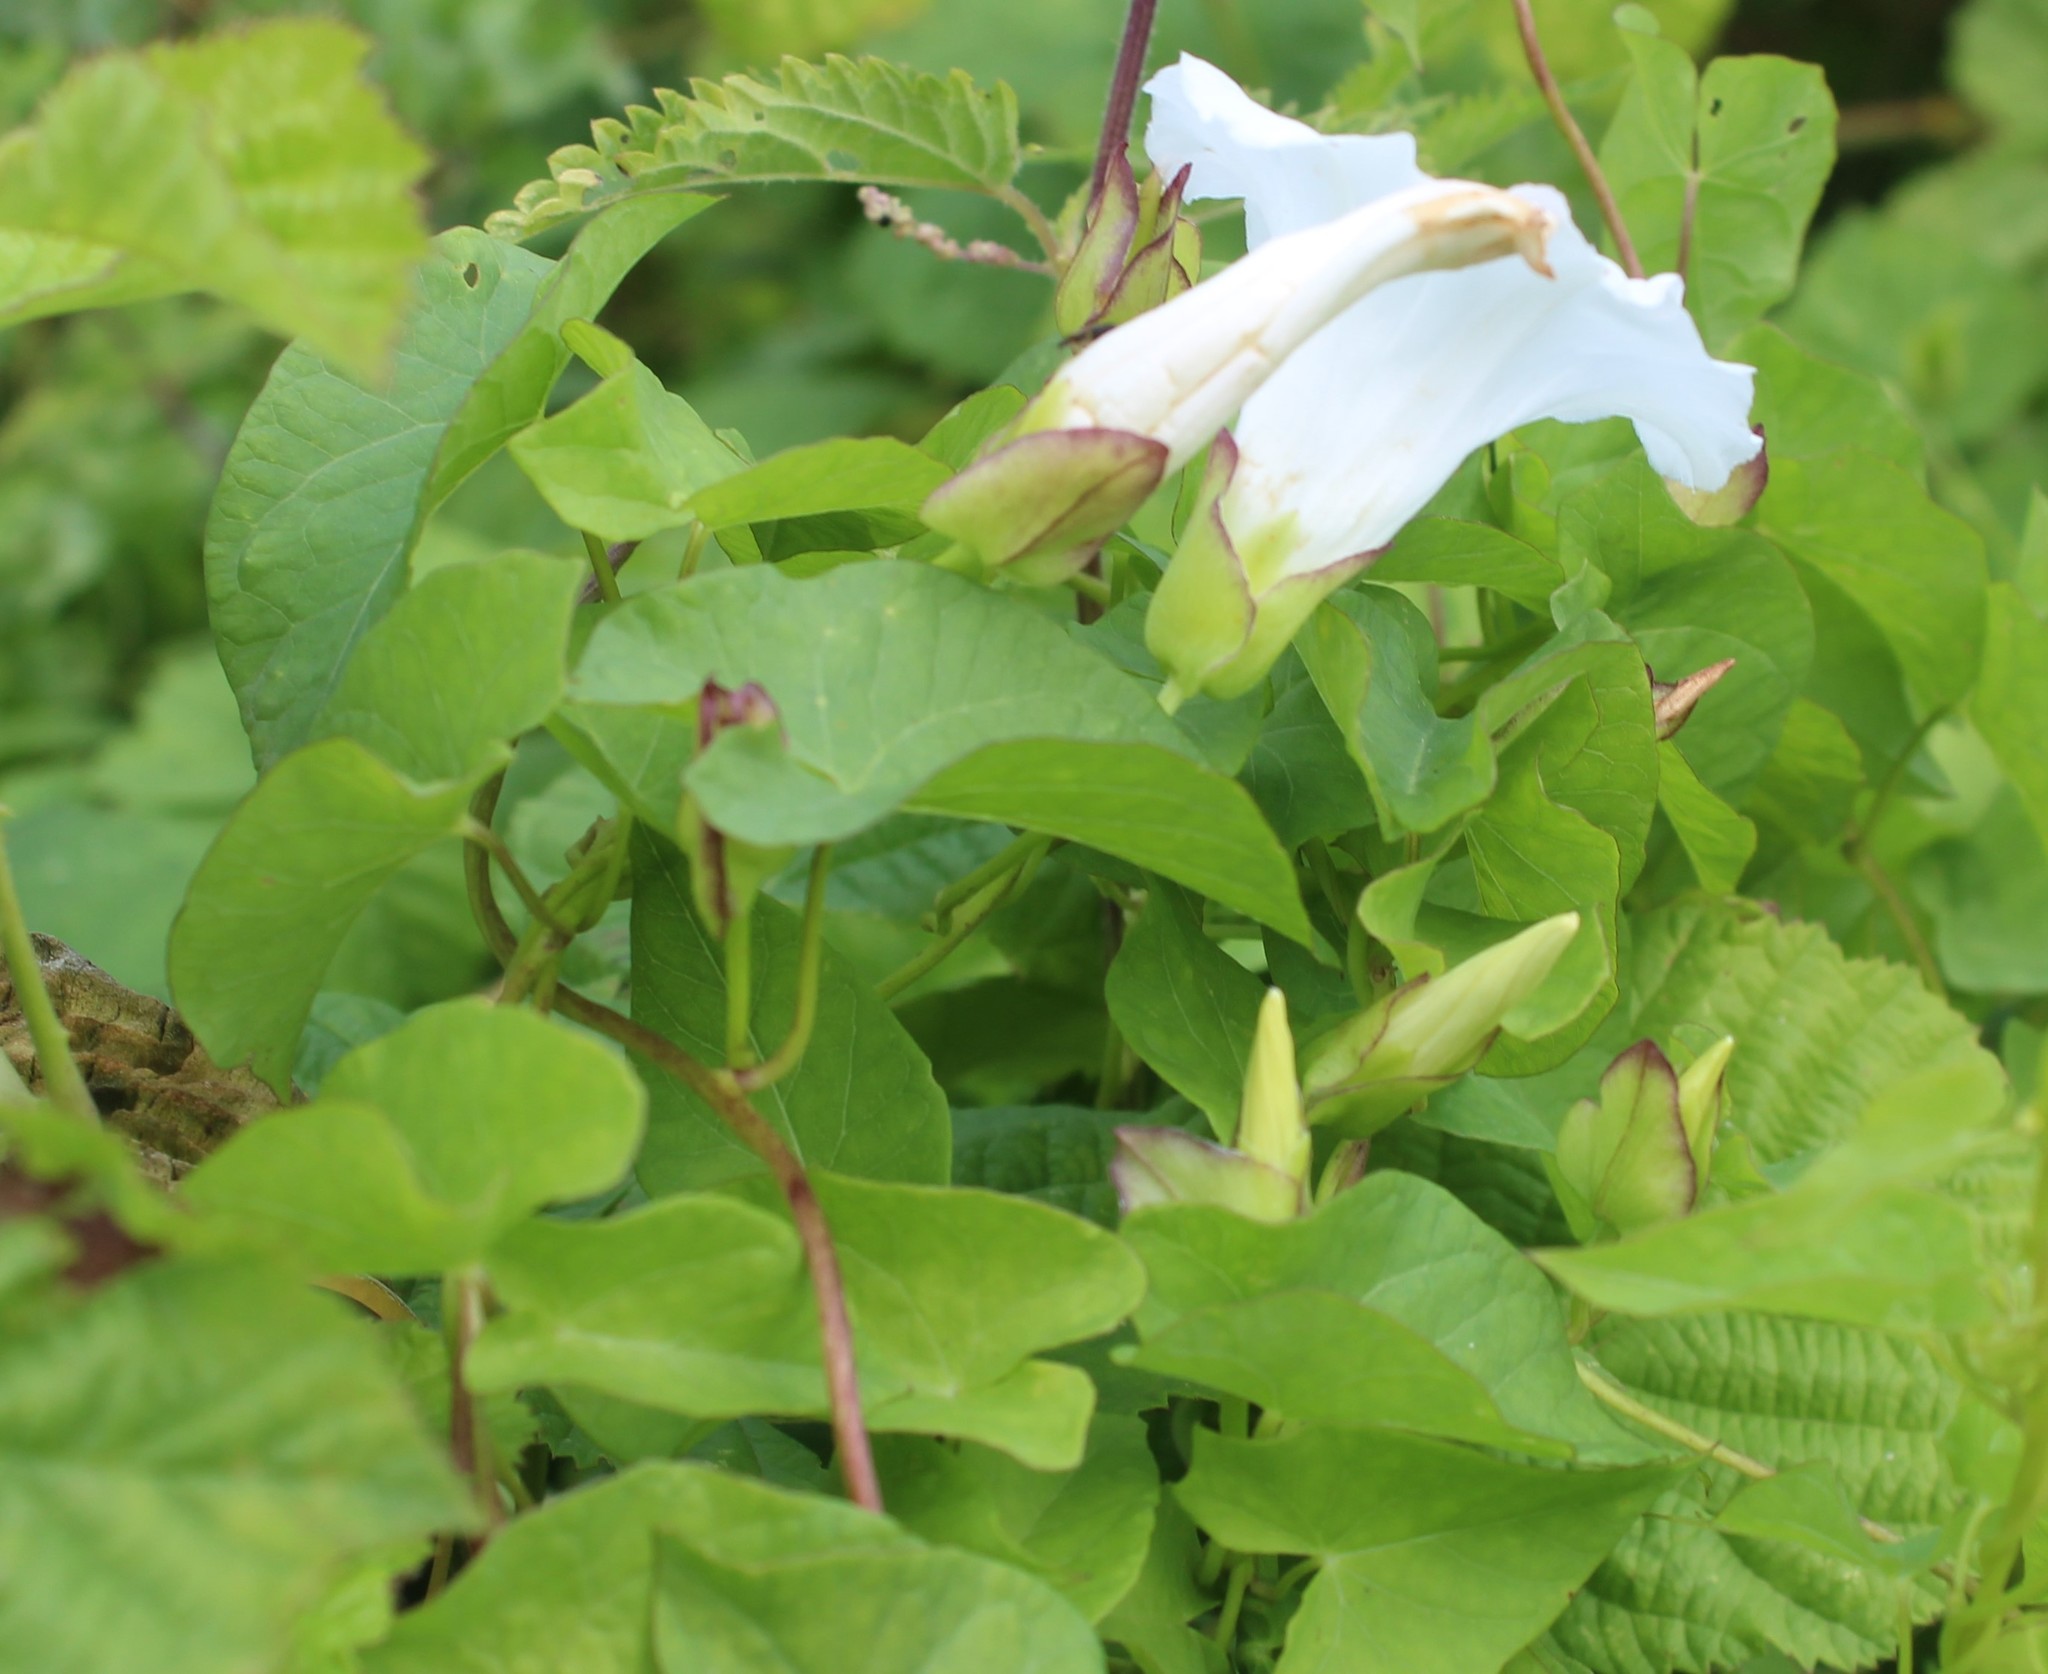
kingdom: Plantae
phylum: Tracheophyta
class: Magnoliopsida
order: Solanales
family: Convolvulaceae
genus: Calystegia
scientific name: Calystegia sepium
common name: Hedge bindweed
